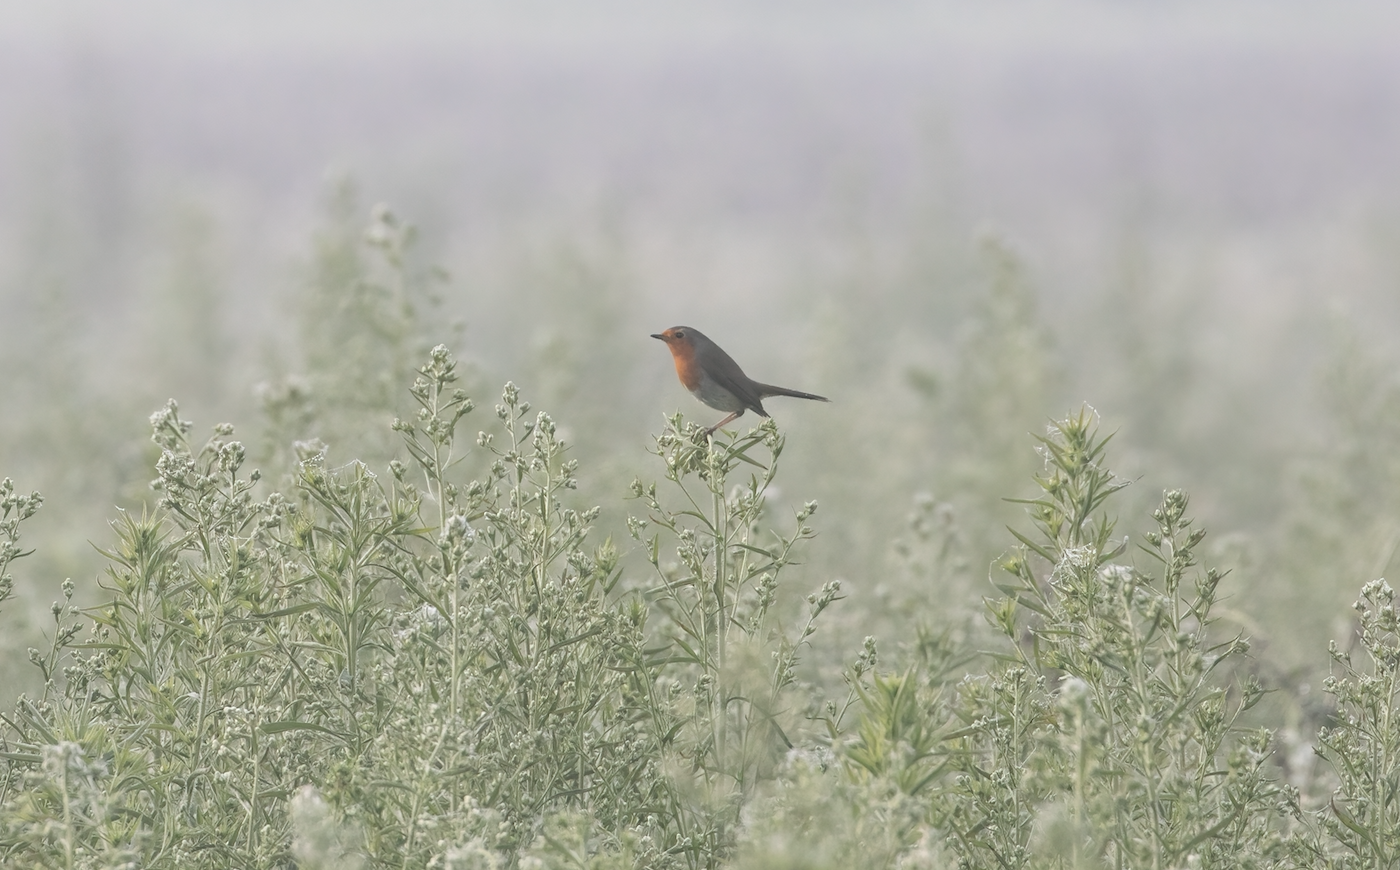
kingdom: Animalia
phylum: Chordata
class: Aves
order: Passeriformes
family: Muscicapidae
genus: Erithacus
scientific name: Erithacus rubecula
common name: European robin
